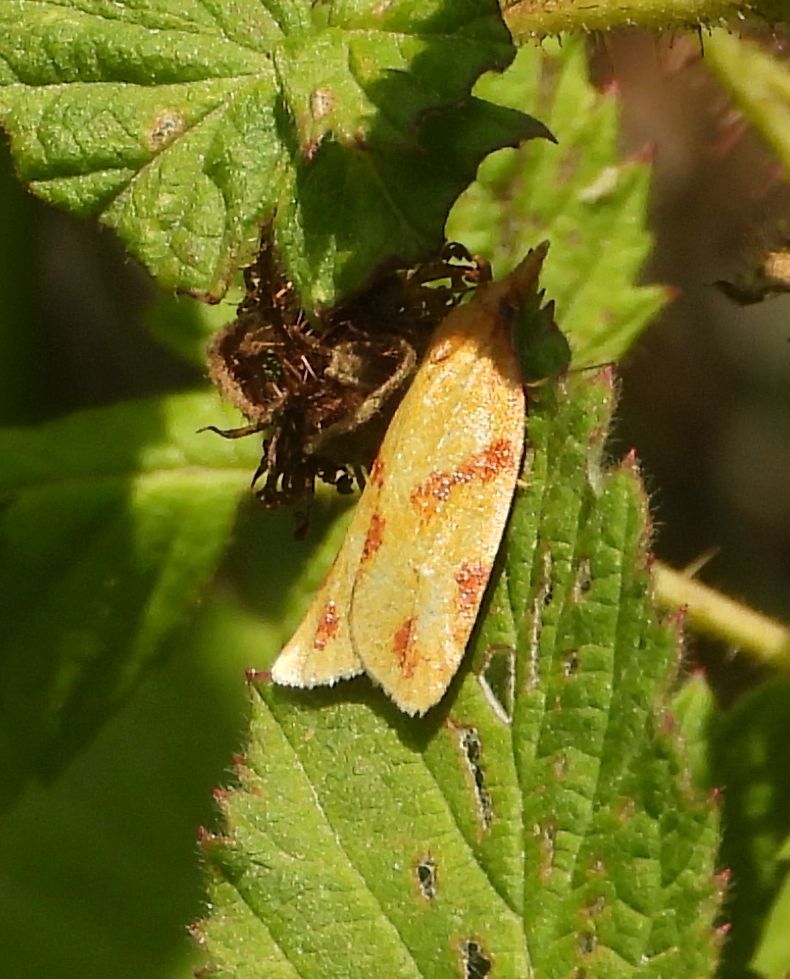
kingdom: Animalia
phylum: Arthropoda
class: Insecta
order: Lepidoptera
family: Tortricidae
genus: Sparganothis
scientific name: Sparganothis unifasciana
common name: One-lined sparganothis moth
